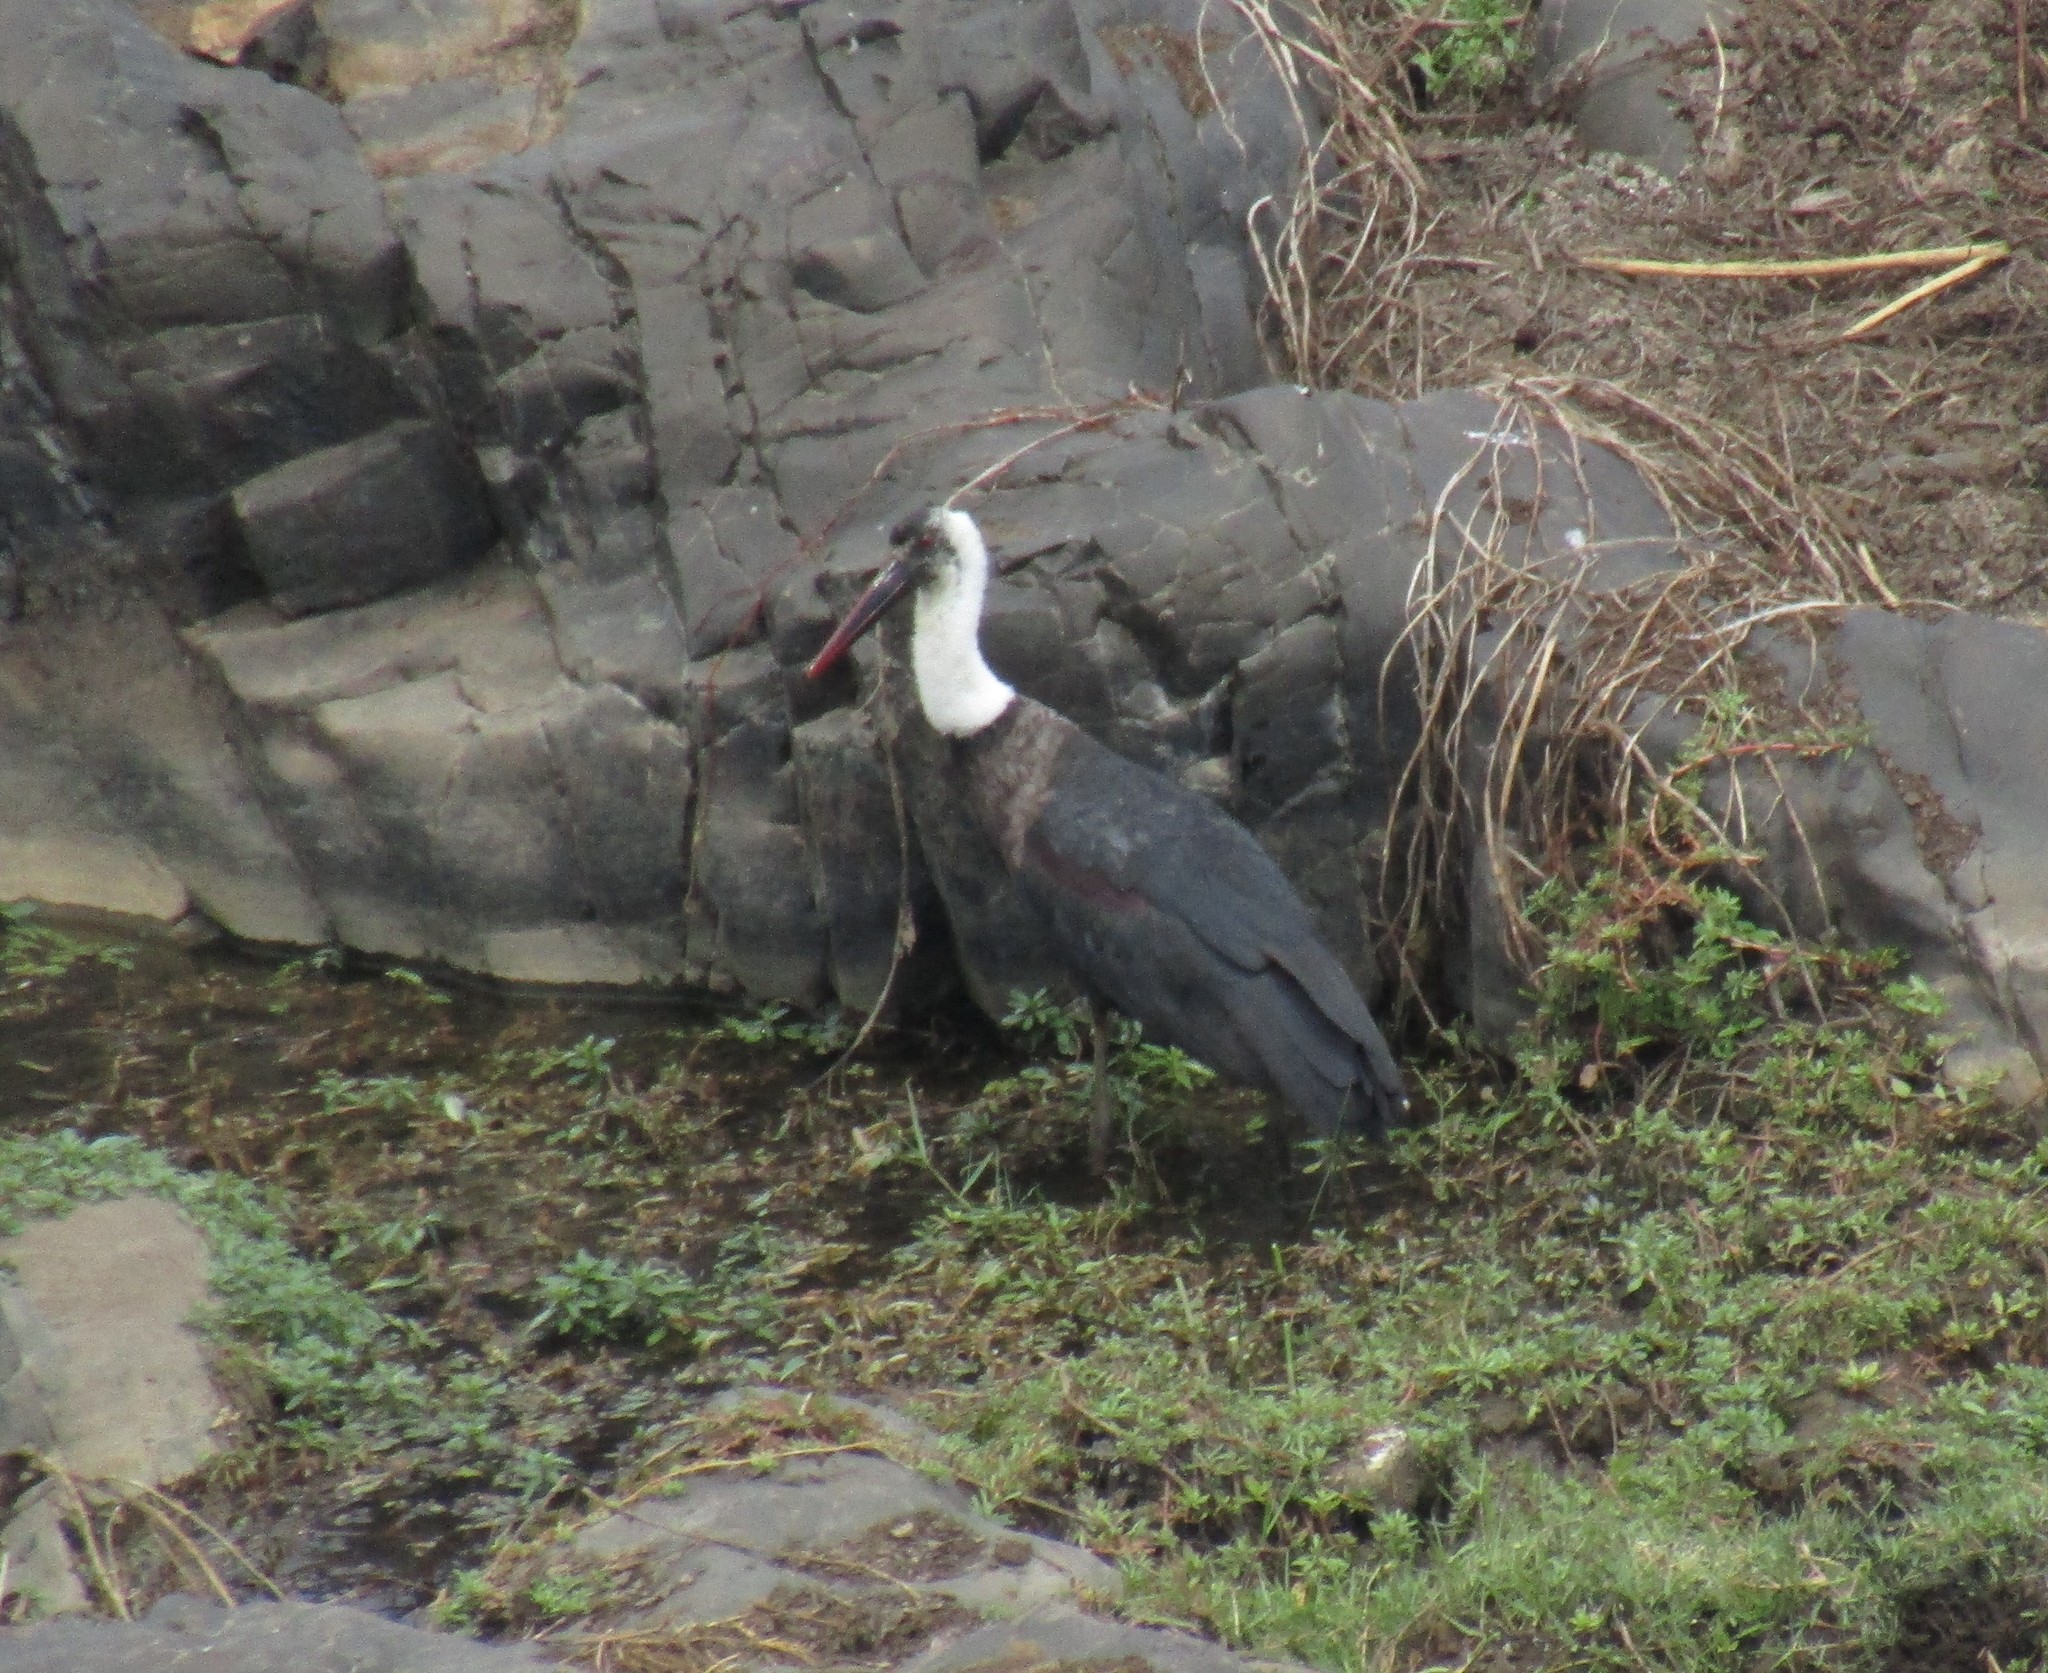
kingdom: Animalia
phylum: Chordata
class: Aves
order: Ciconiiformes
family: Ciconiidae
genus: Ciconia
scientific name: Ciconia microscelis
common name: African woollyneck
